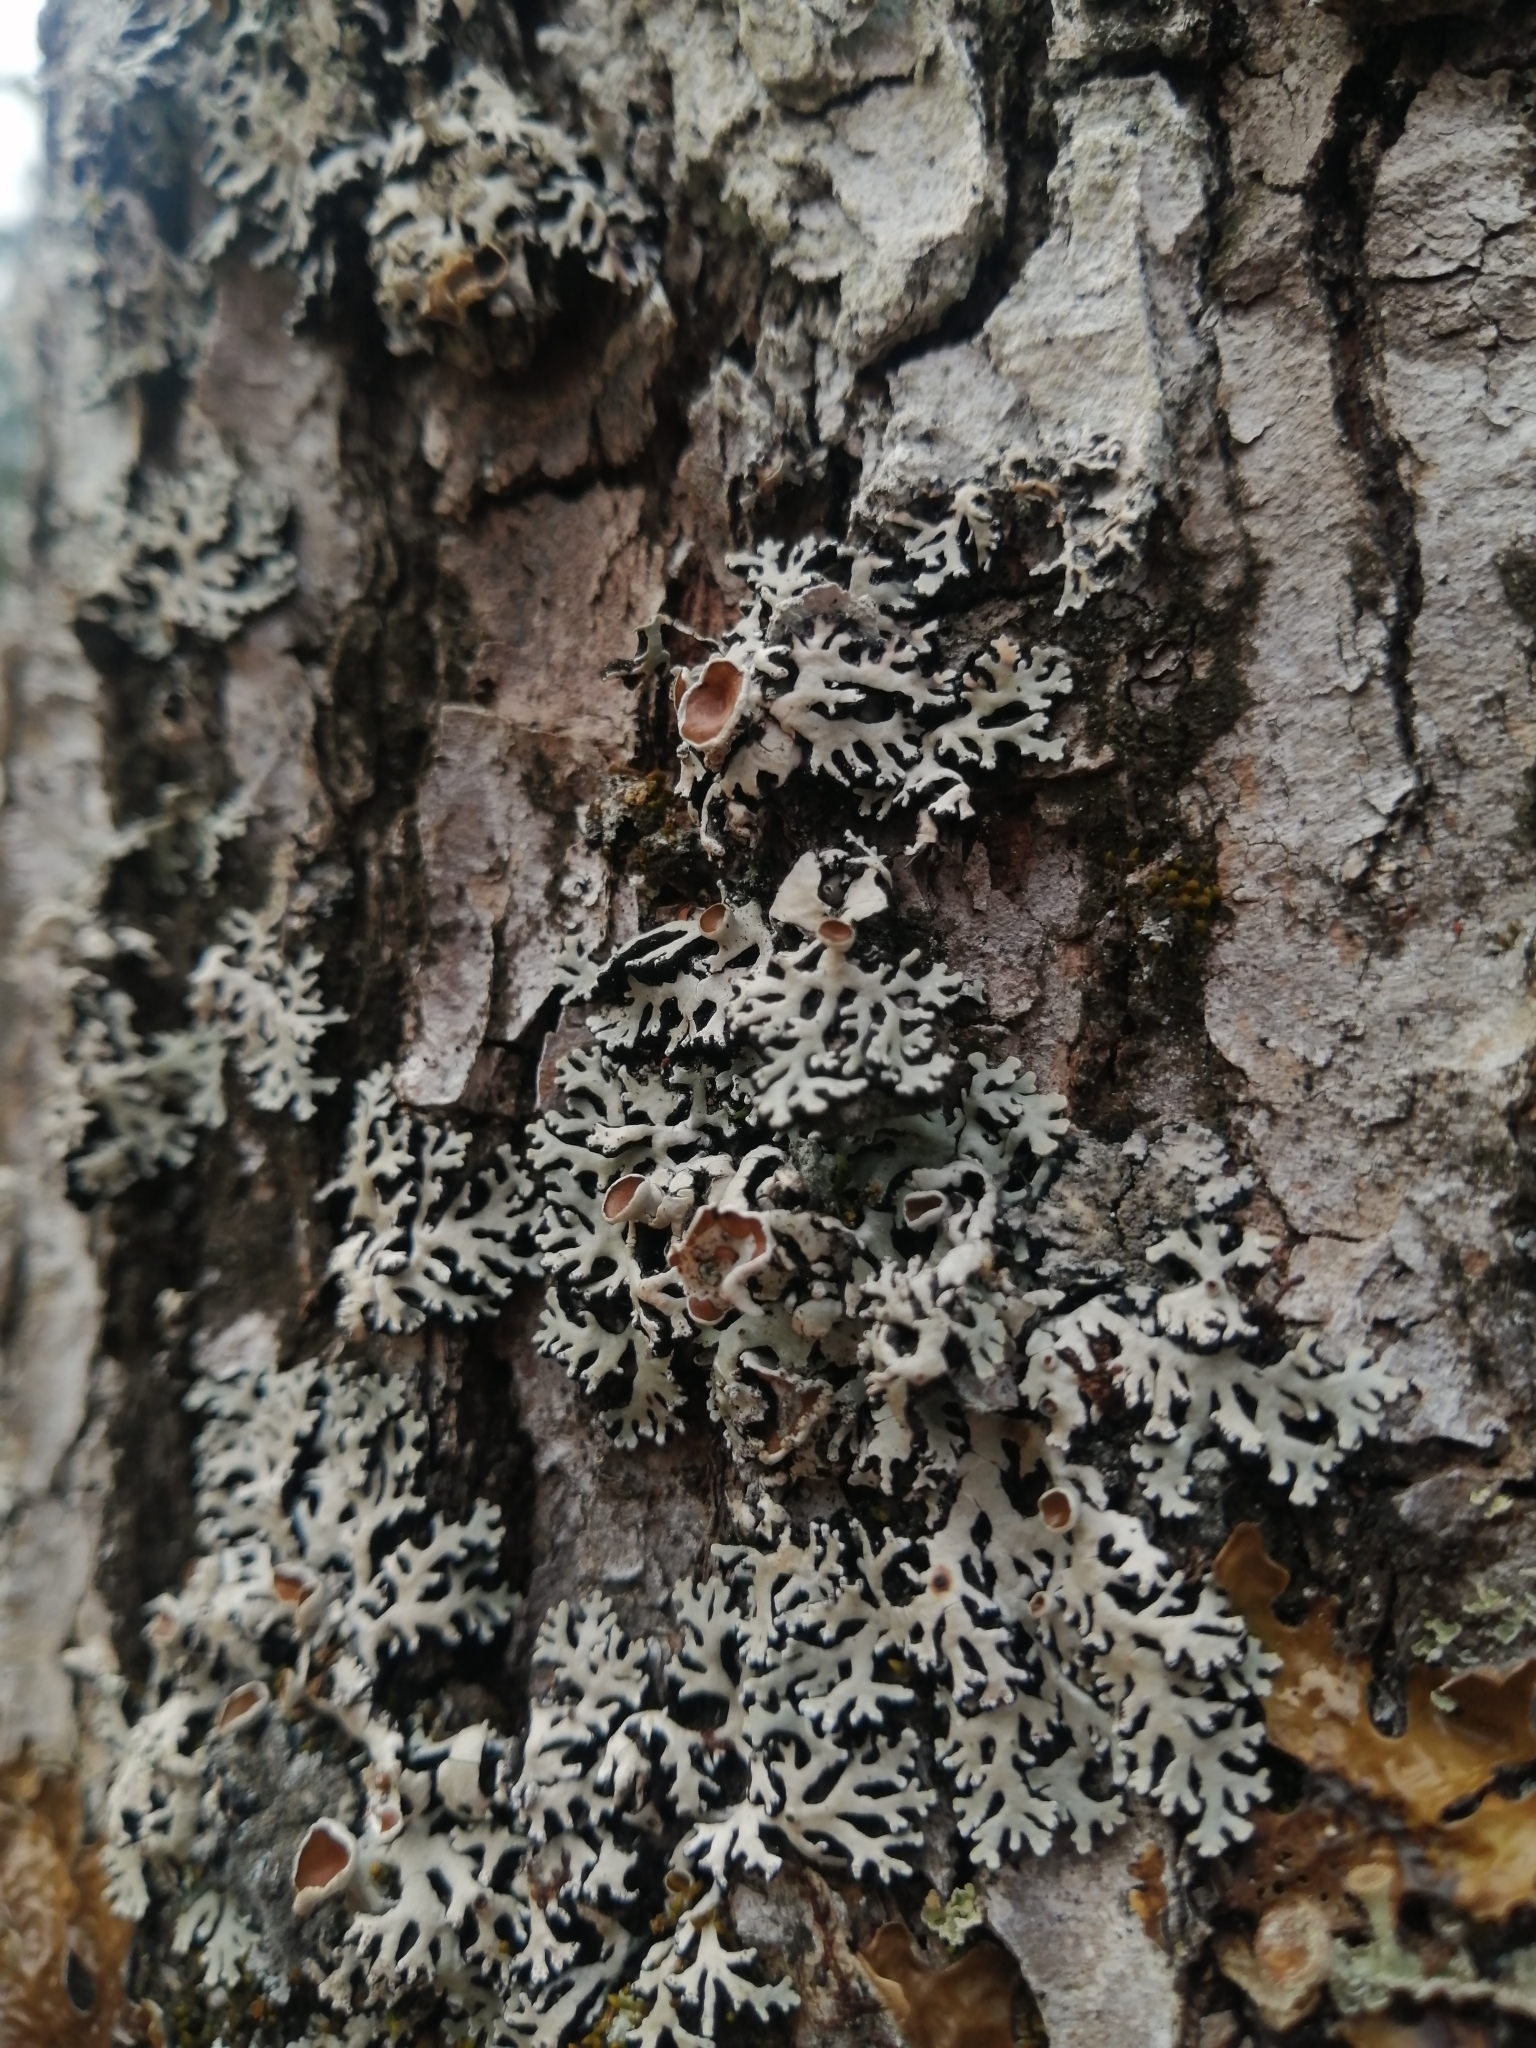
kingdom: Fungi
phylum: Ascomycota
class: Lecanoromycetes
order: Lecanorales
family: Parmeliaceae
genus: Anzia
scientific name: Anzia colpodes
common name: Black-foam lichen
